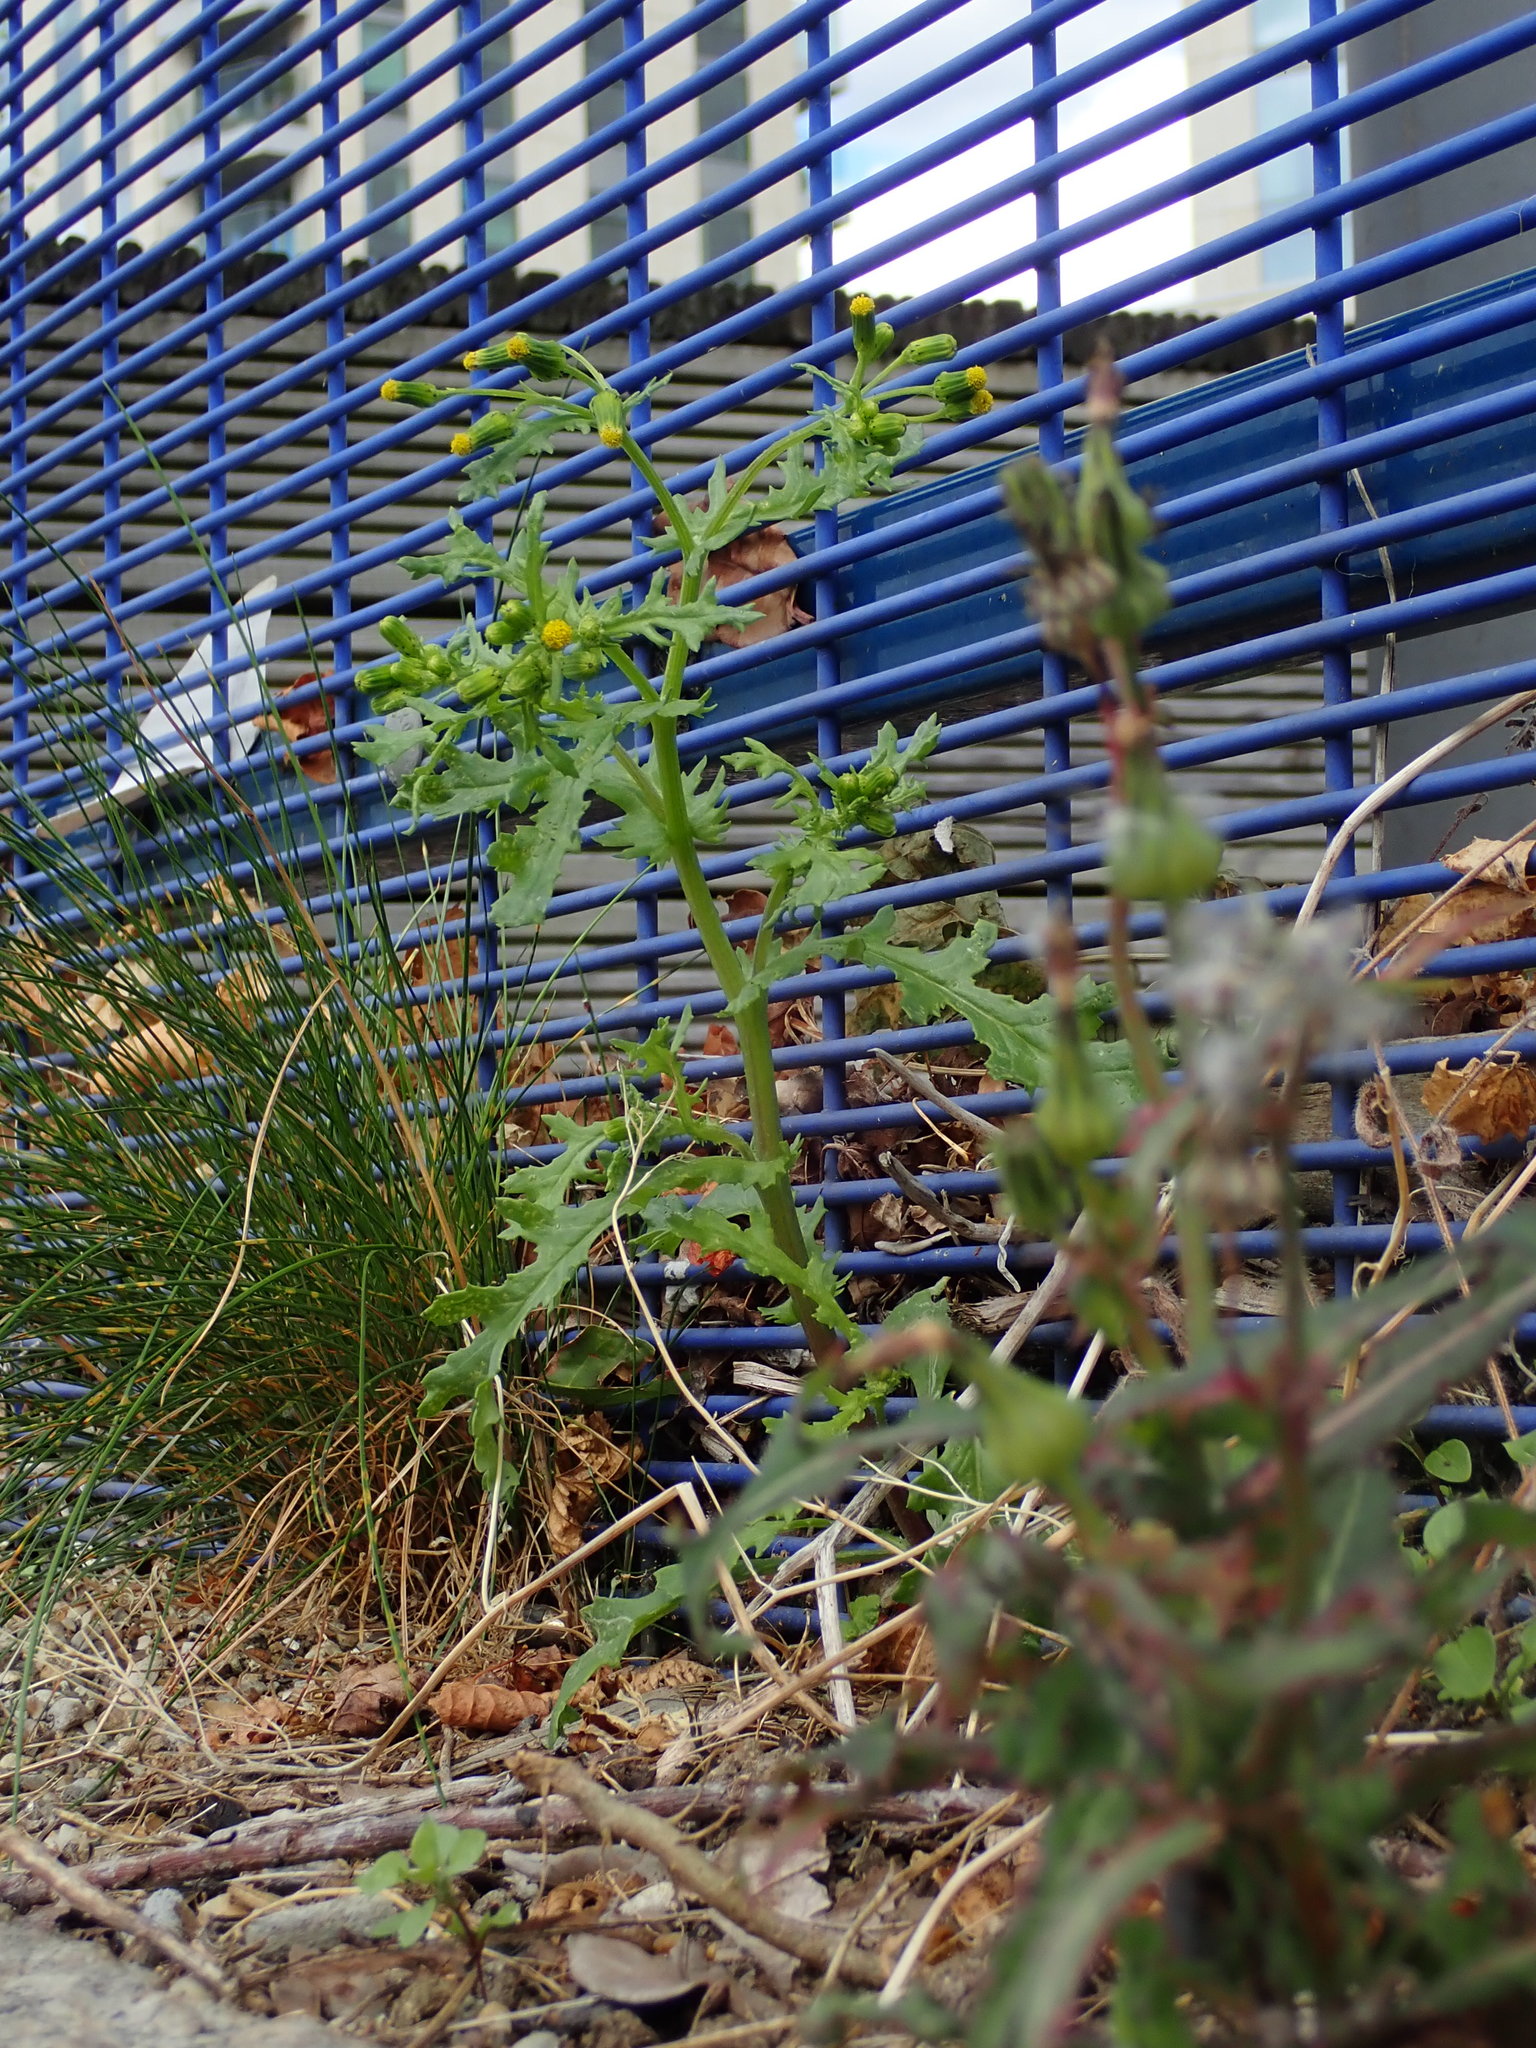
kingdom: Plantae
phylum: Tracheophyta
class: Magnoliopsida
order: Asterales
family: Asteraceae
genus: Senecio
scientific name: Senecio vulgaris
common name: Old-man-in-the-spring
